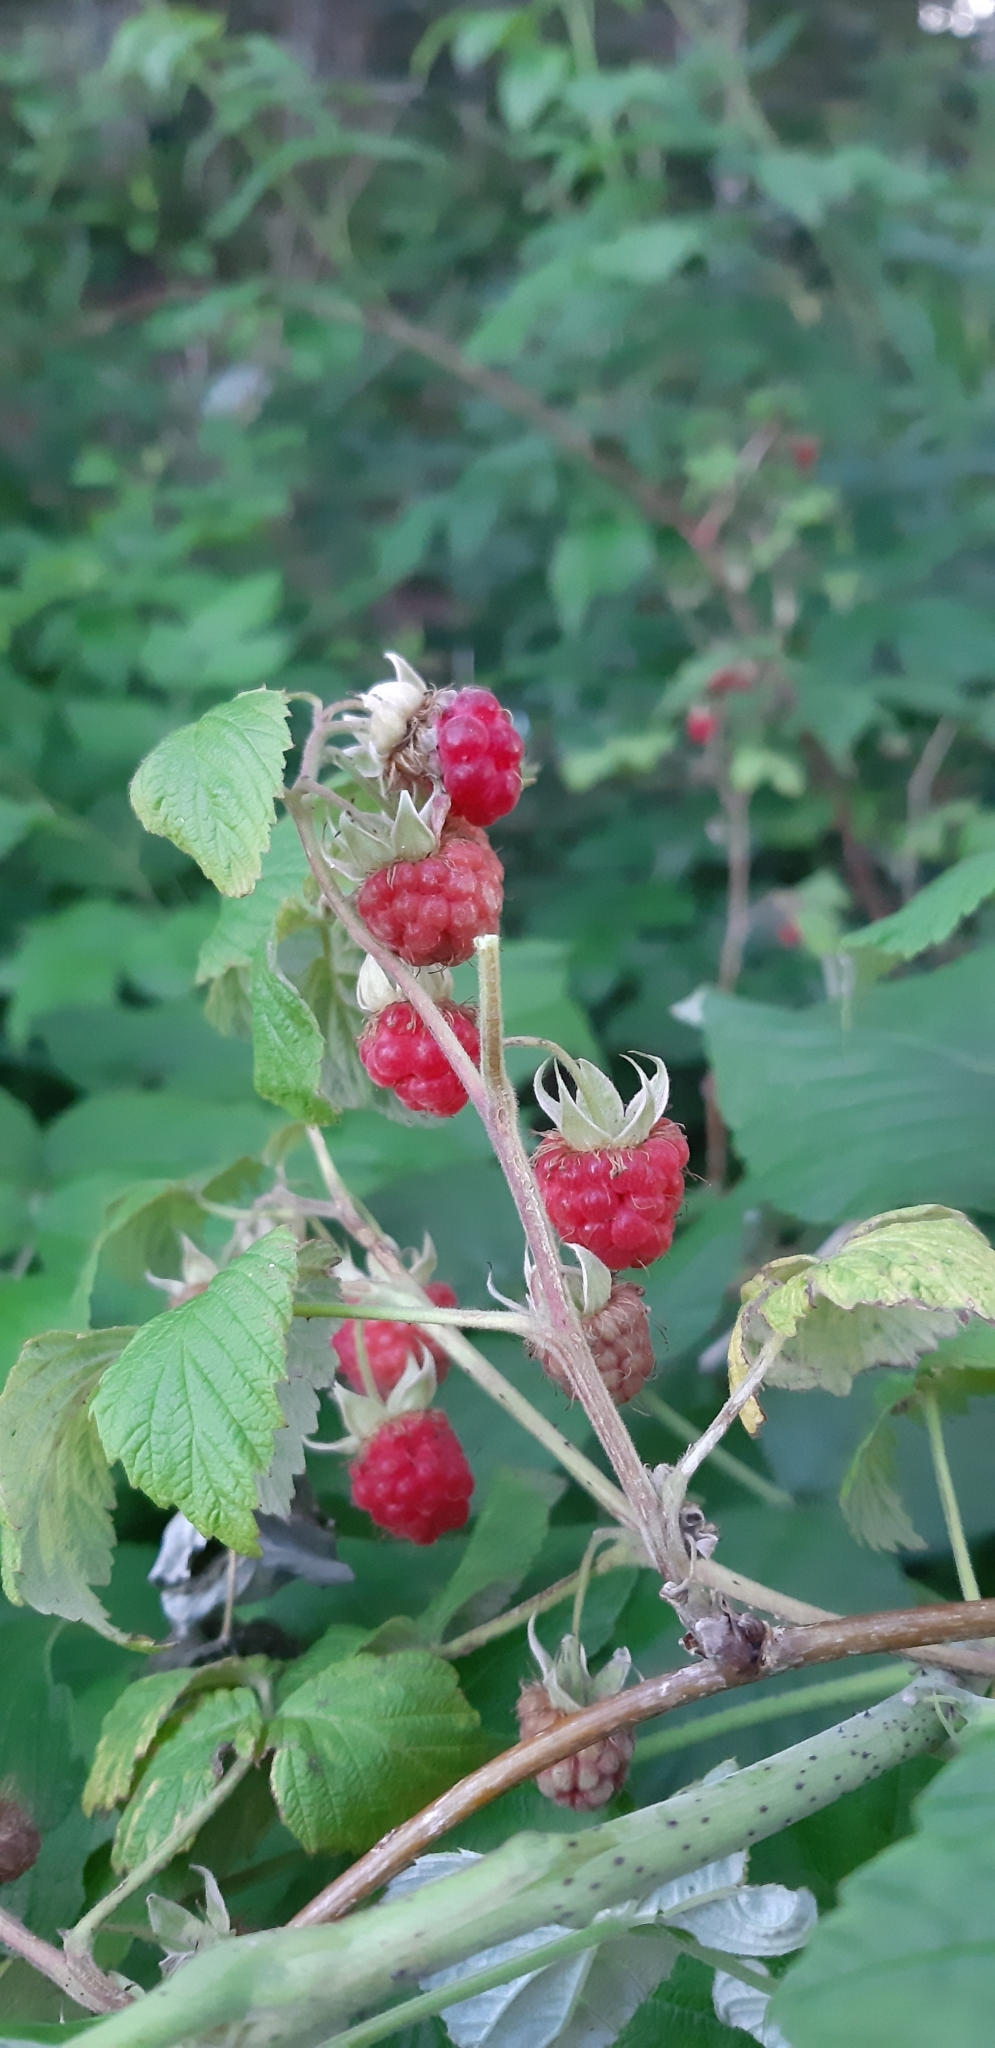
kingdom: Plantae
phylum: Tracheophyta
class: Magnoliopsida
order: Rosales
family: Rosaceae
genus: Rubus
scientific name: Rubus idaeus
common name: Raspberry
